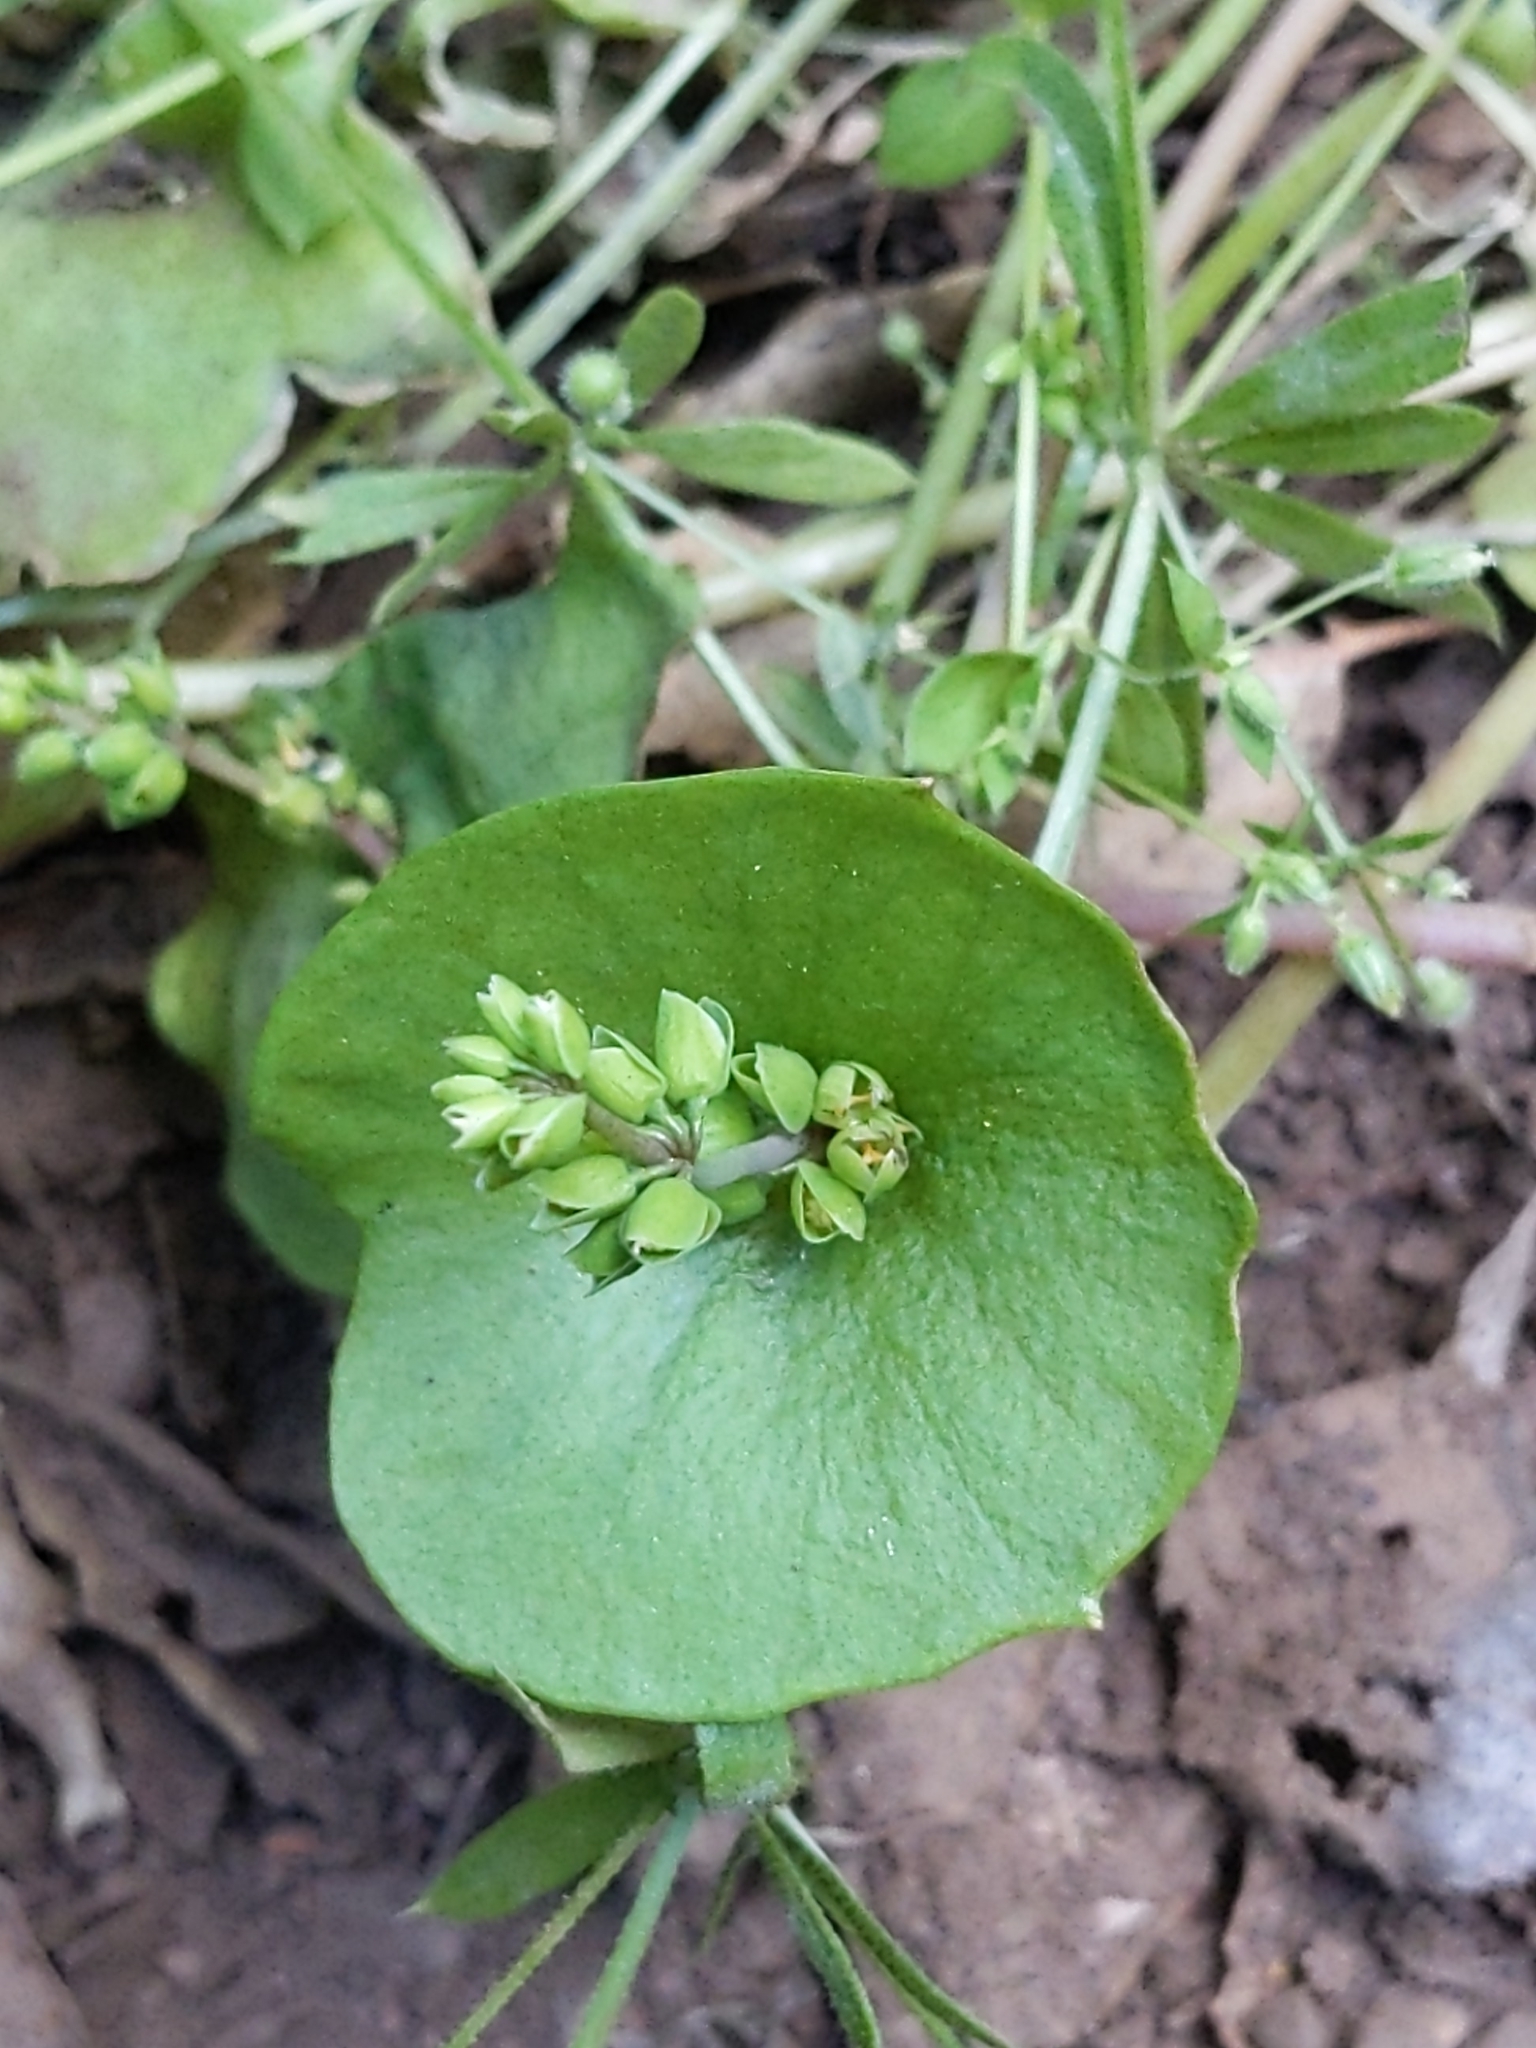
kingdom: Plantae
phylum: Tracheophyta
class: Magnoliopsida
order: Caryophyllales
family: Montiaceae
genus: Claytonia
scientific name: Claytonia perfoliata
